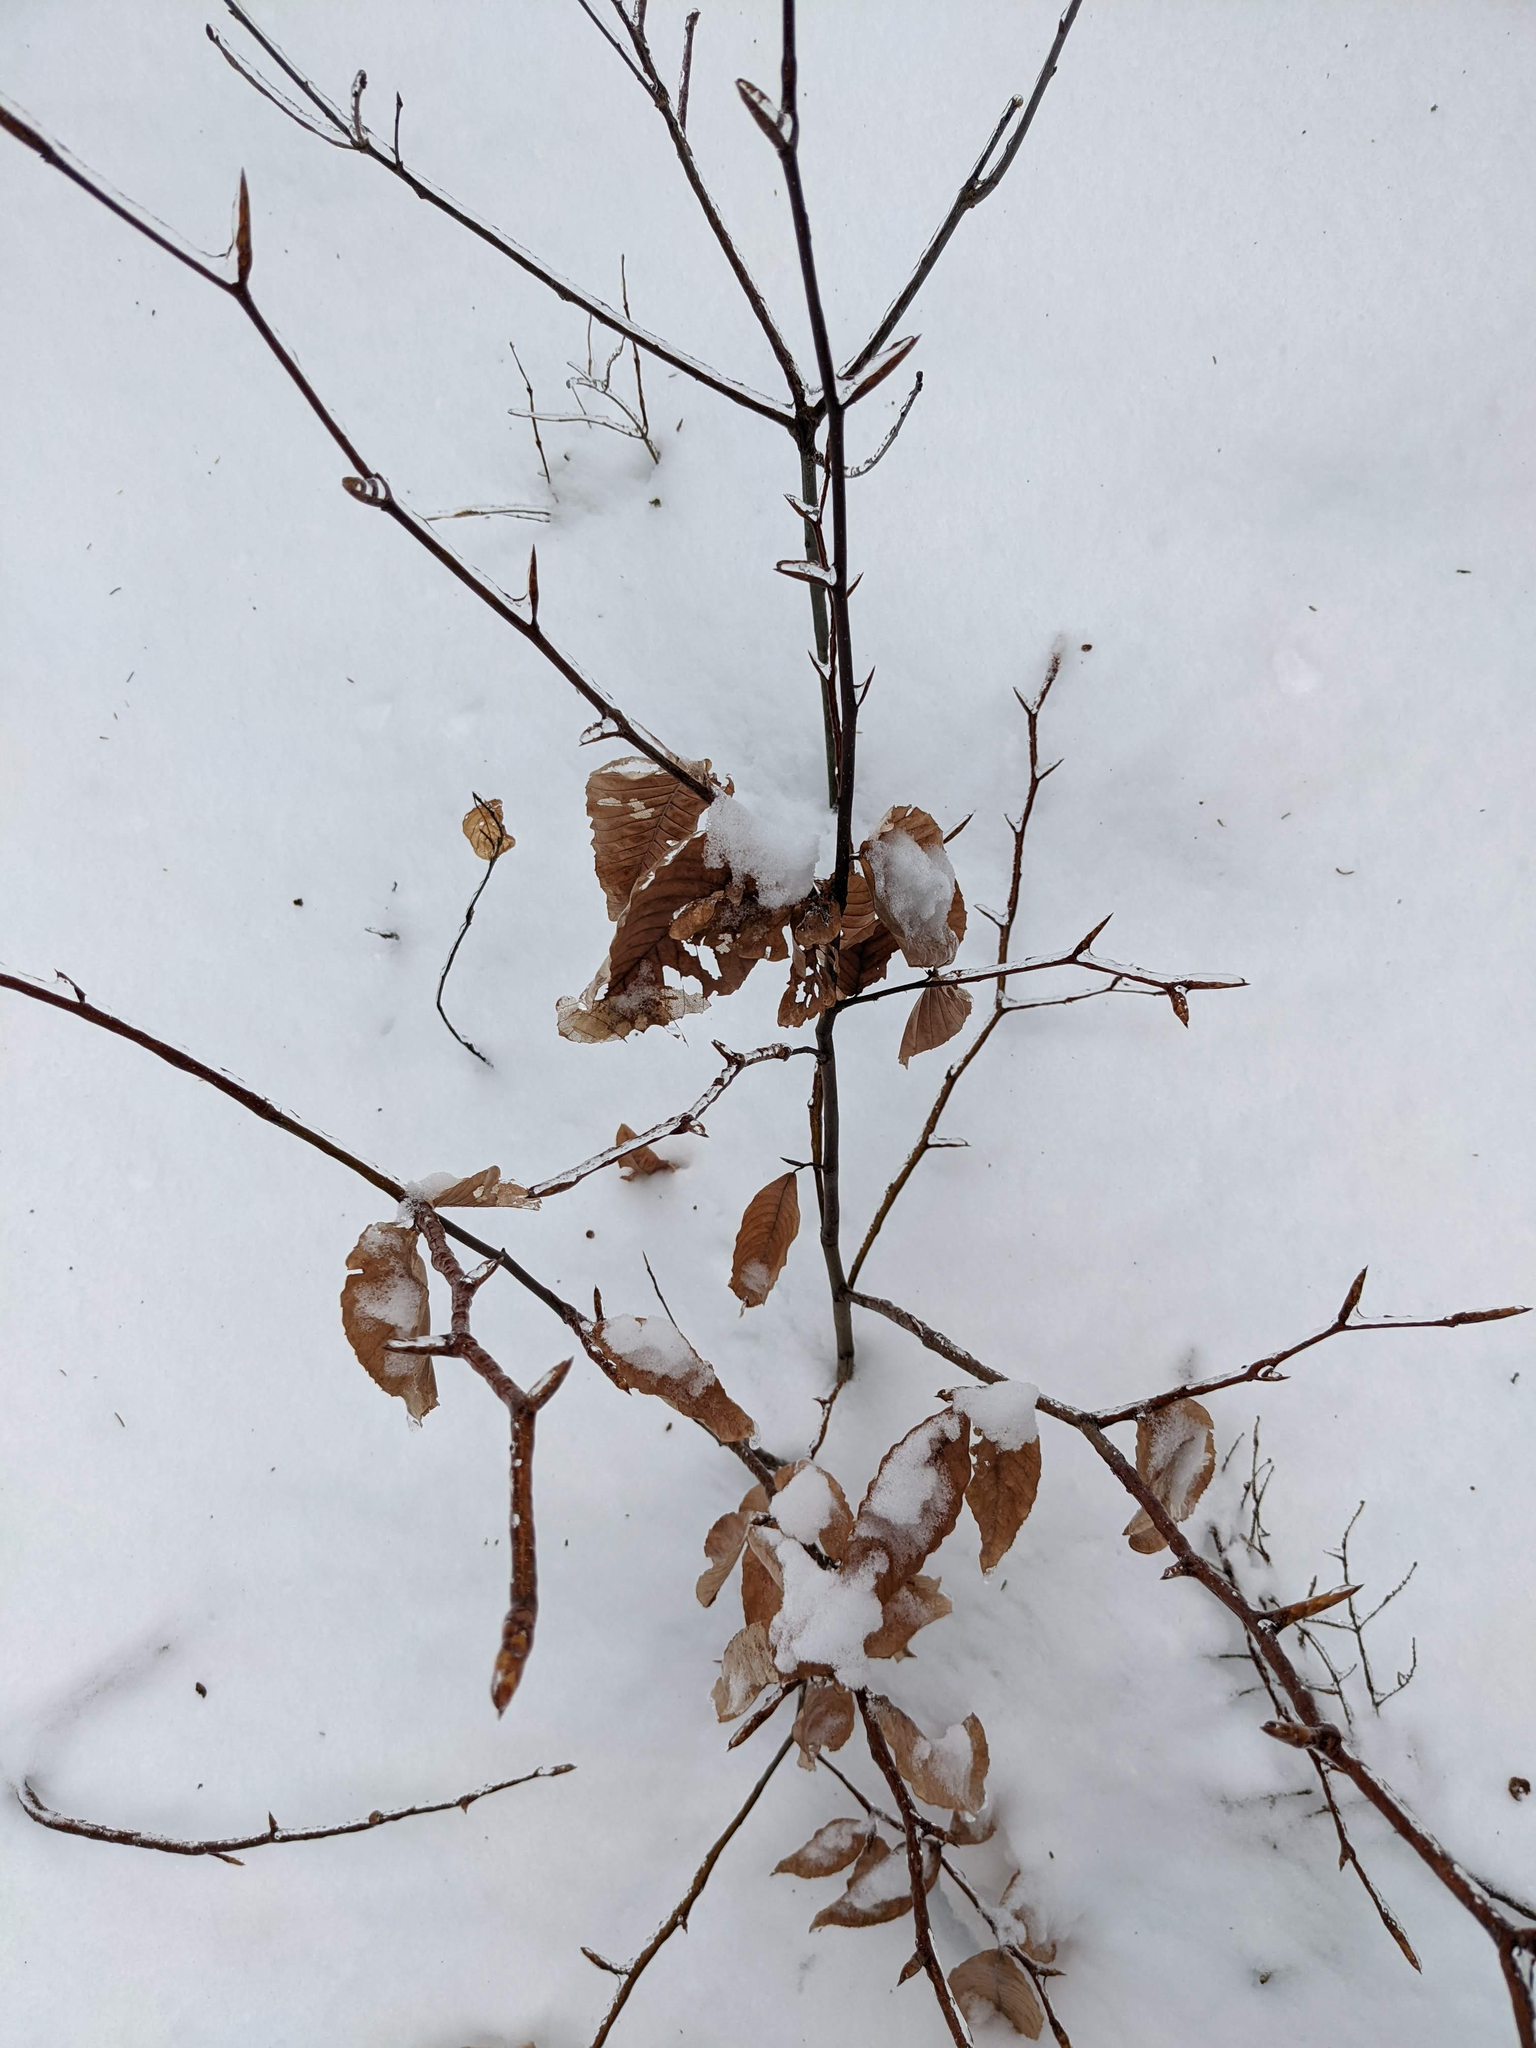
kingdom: Plantae
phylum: Tracheophyta
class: Magnoliopsida
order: Fagales
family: Fagaceae
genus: Fagus
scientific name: Fagus grandifolia
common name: American beech
